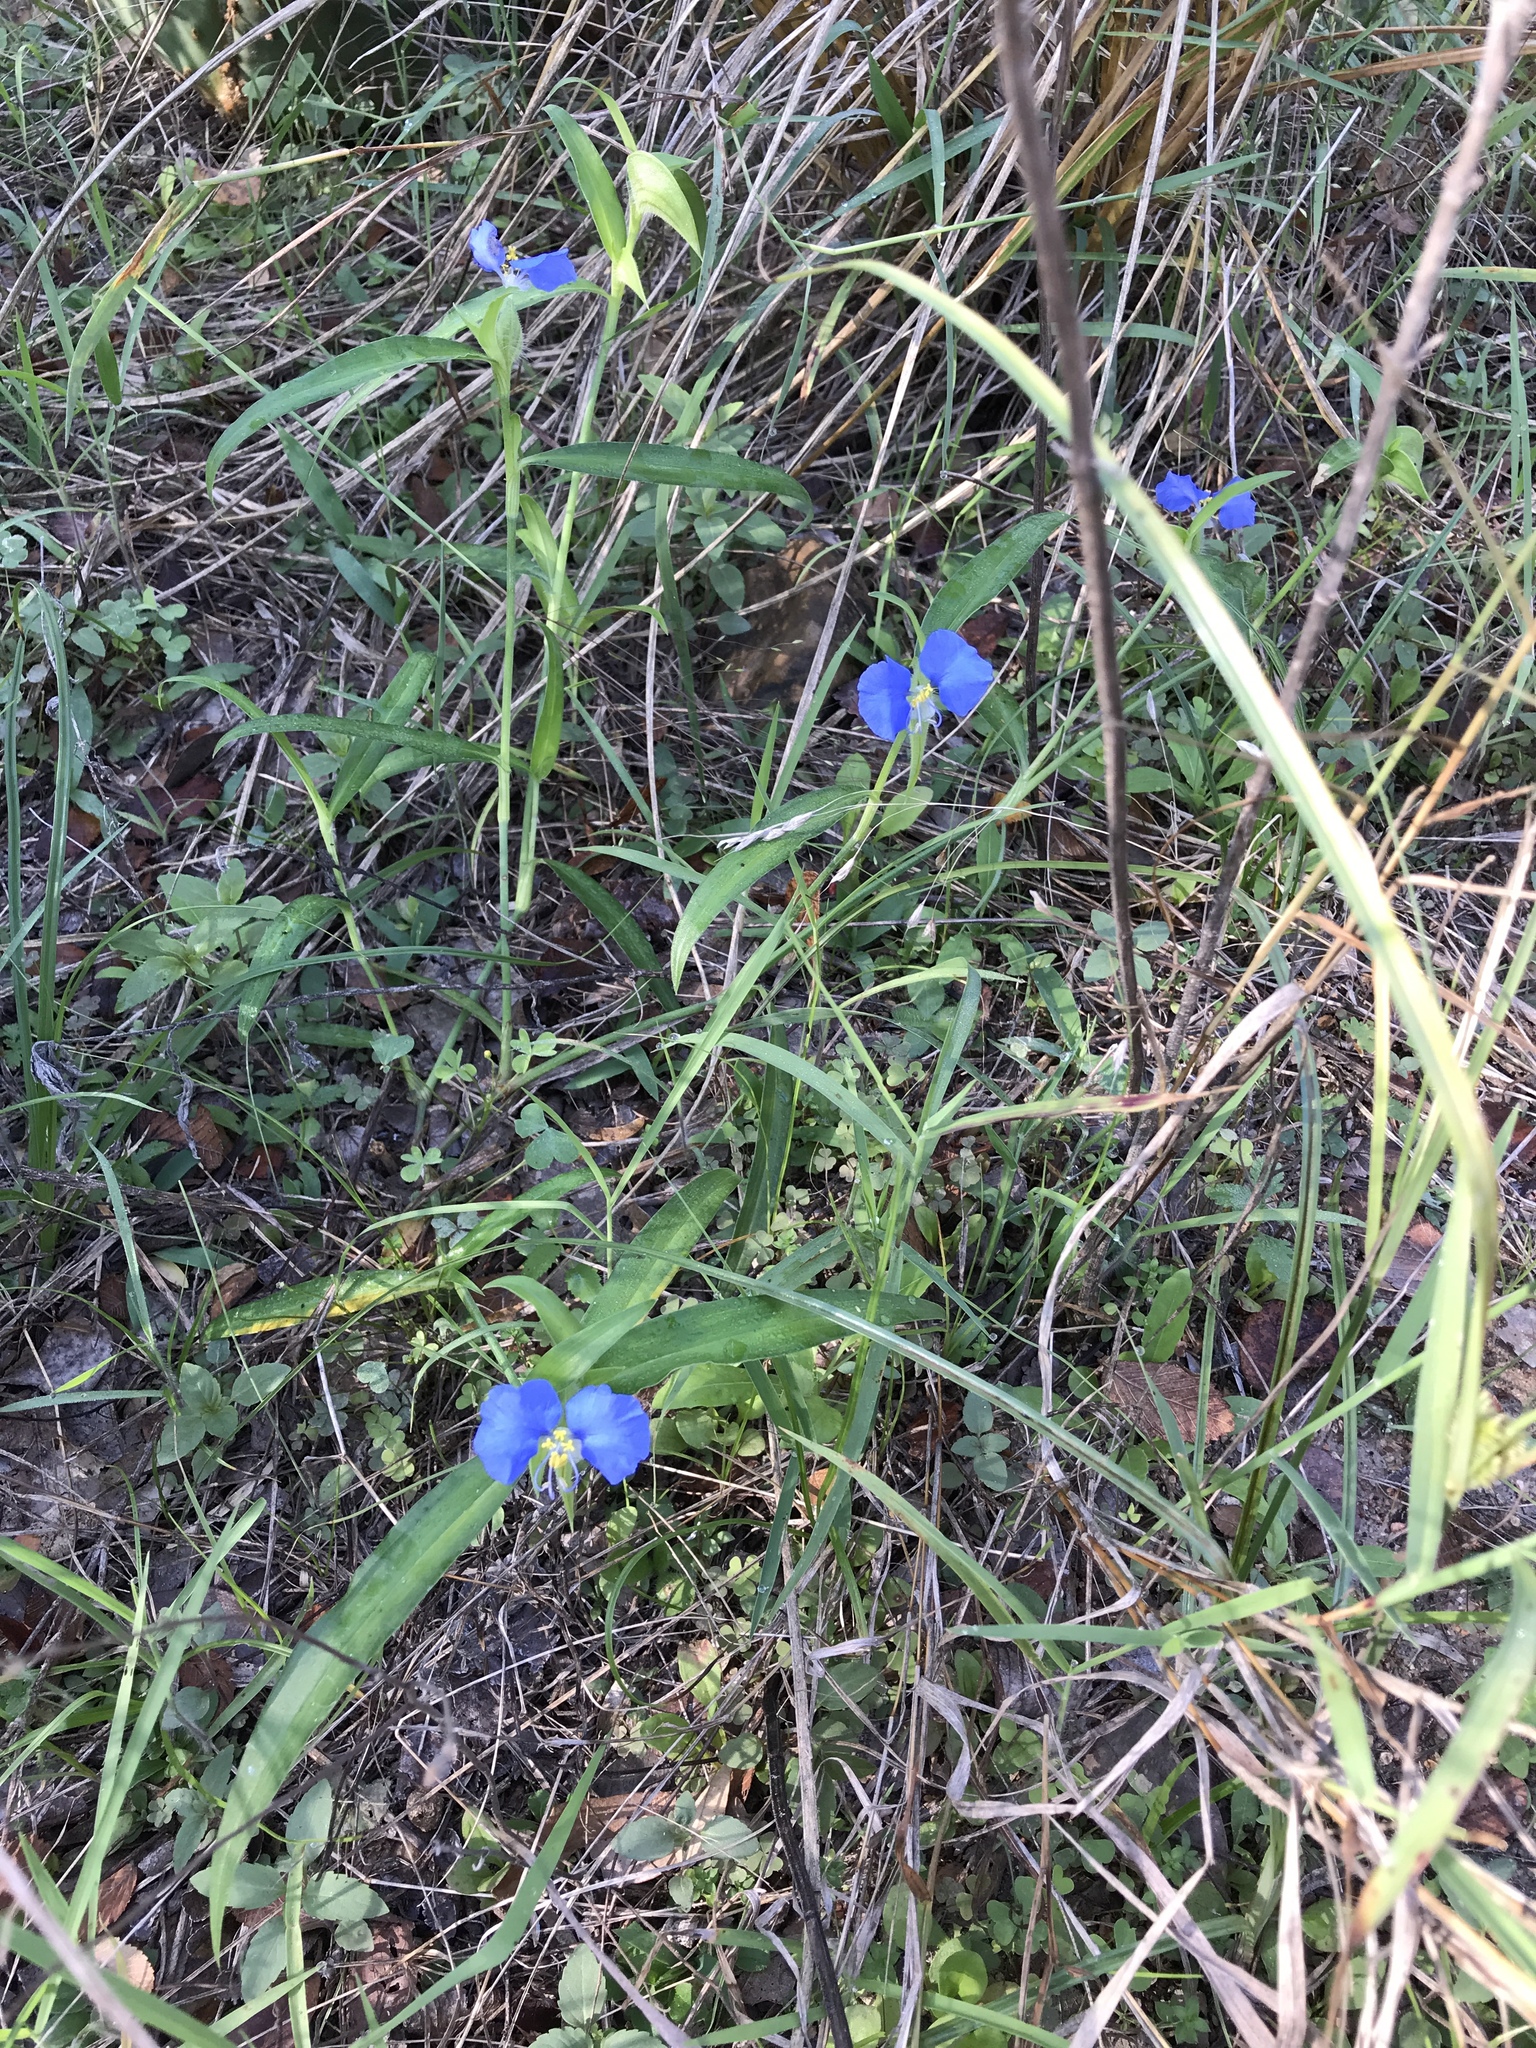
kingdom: Plantae
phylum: Tracheophyta
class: Liliopsida
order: Commelinales
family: Commelinaceae
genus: Commelina
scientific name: Commelina erecta
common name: Blousel blommetjie
